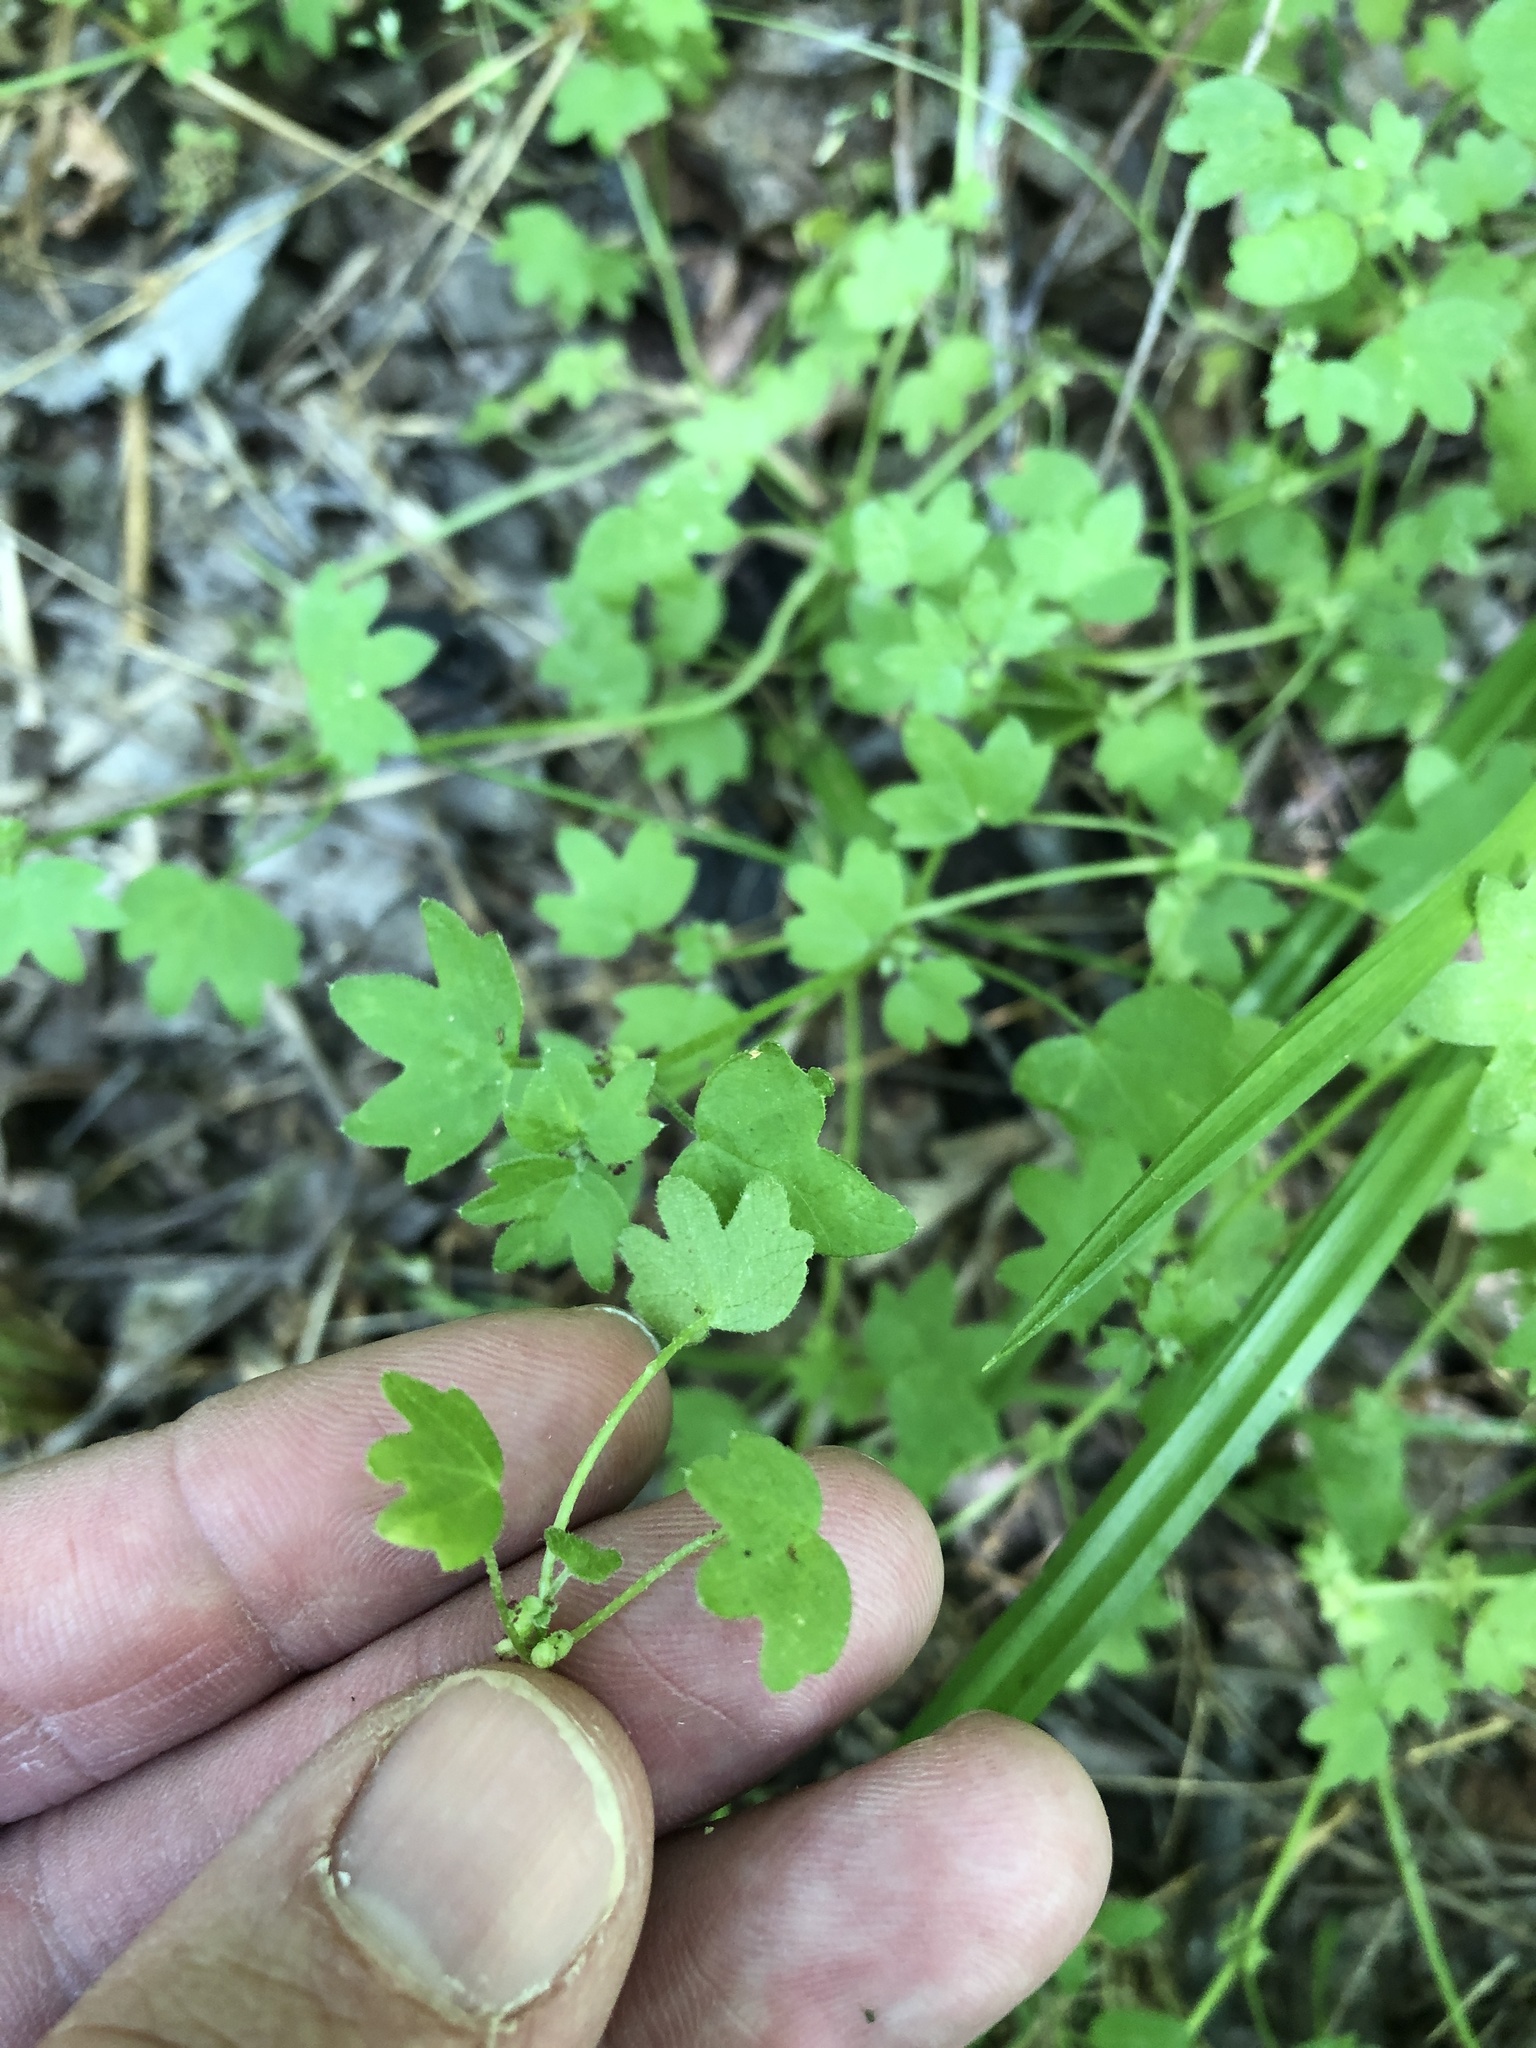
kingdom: Plantae
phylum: Tracheophyta
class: Magnoliopsida
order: Apiales
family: Apiaceae
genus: Bowlesia
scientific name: Bowlesia incana
